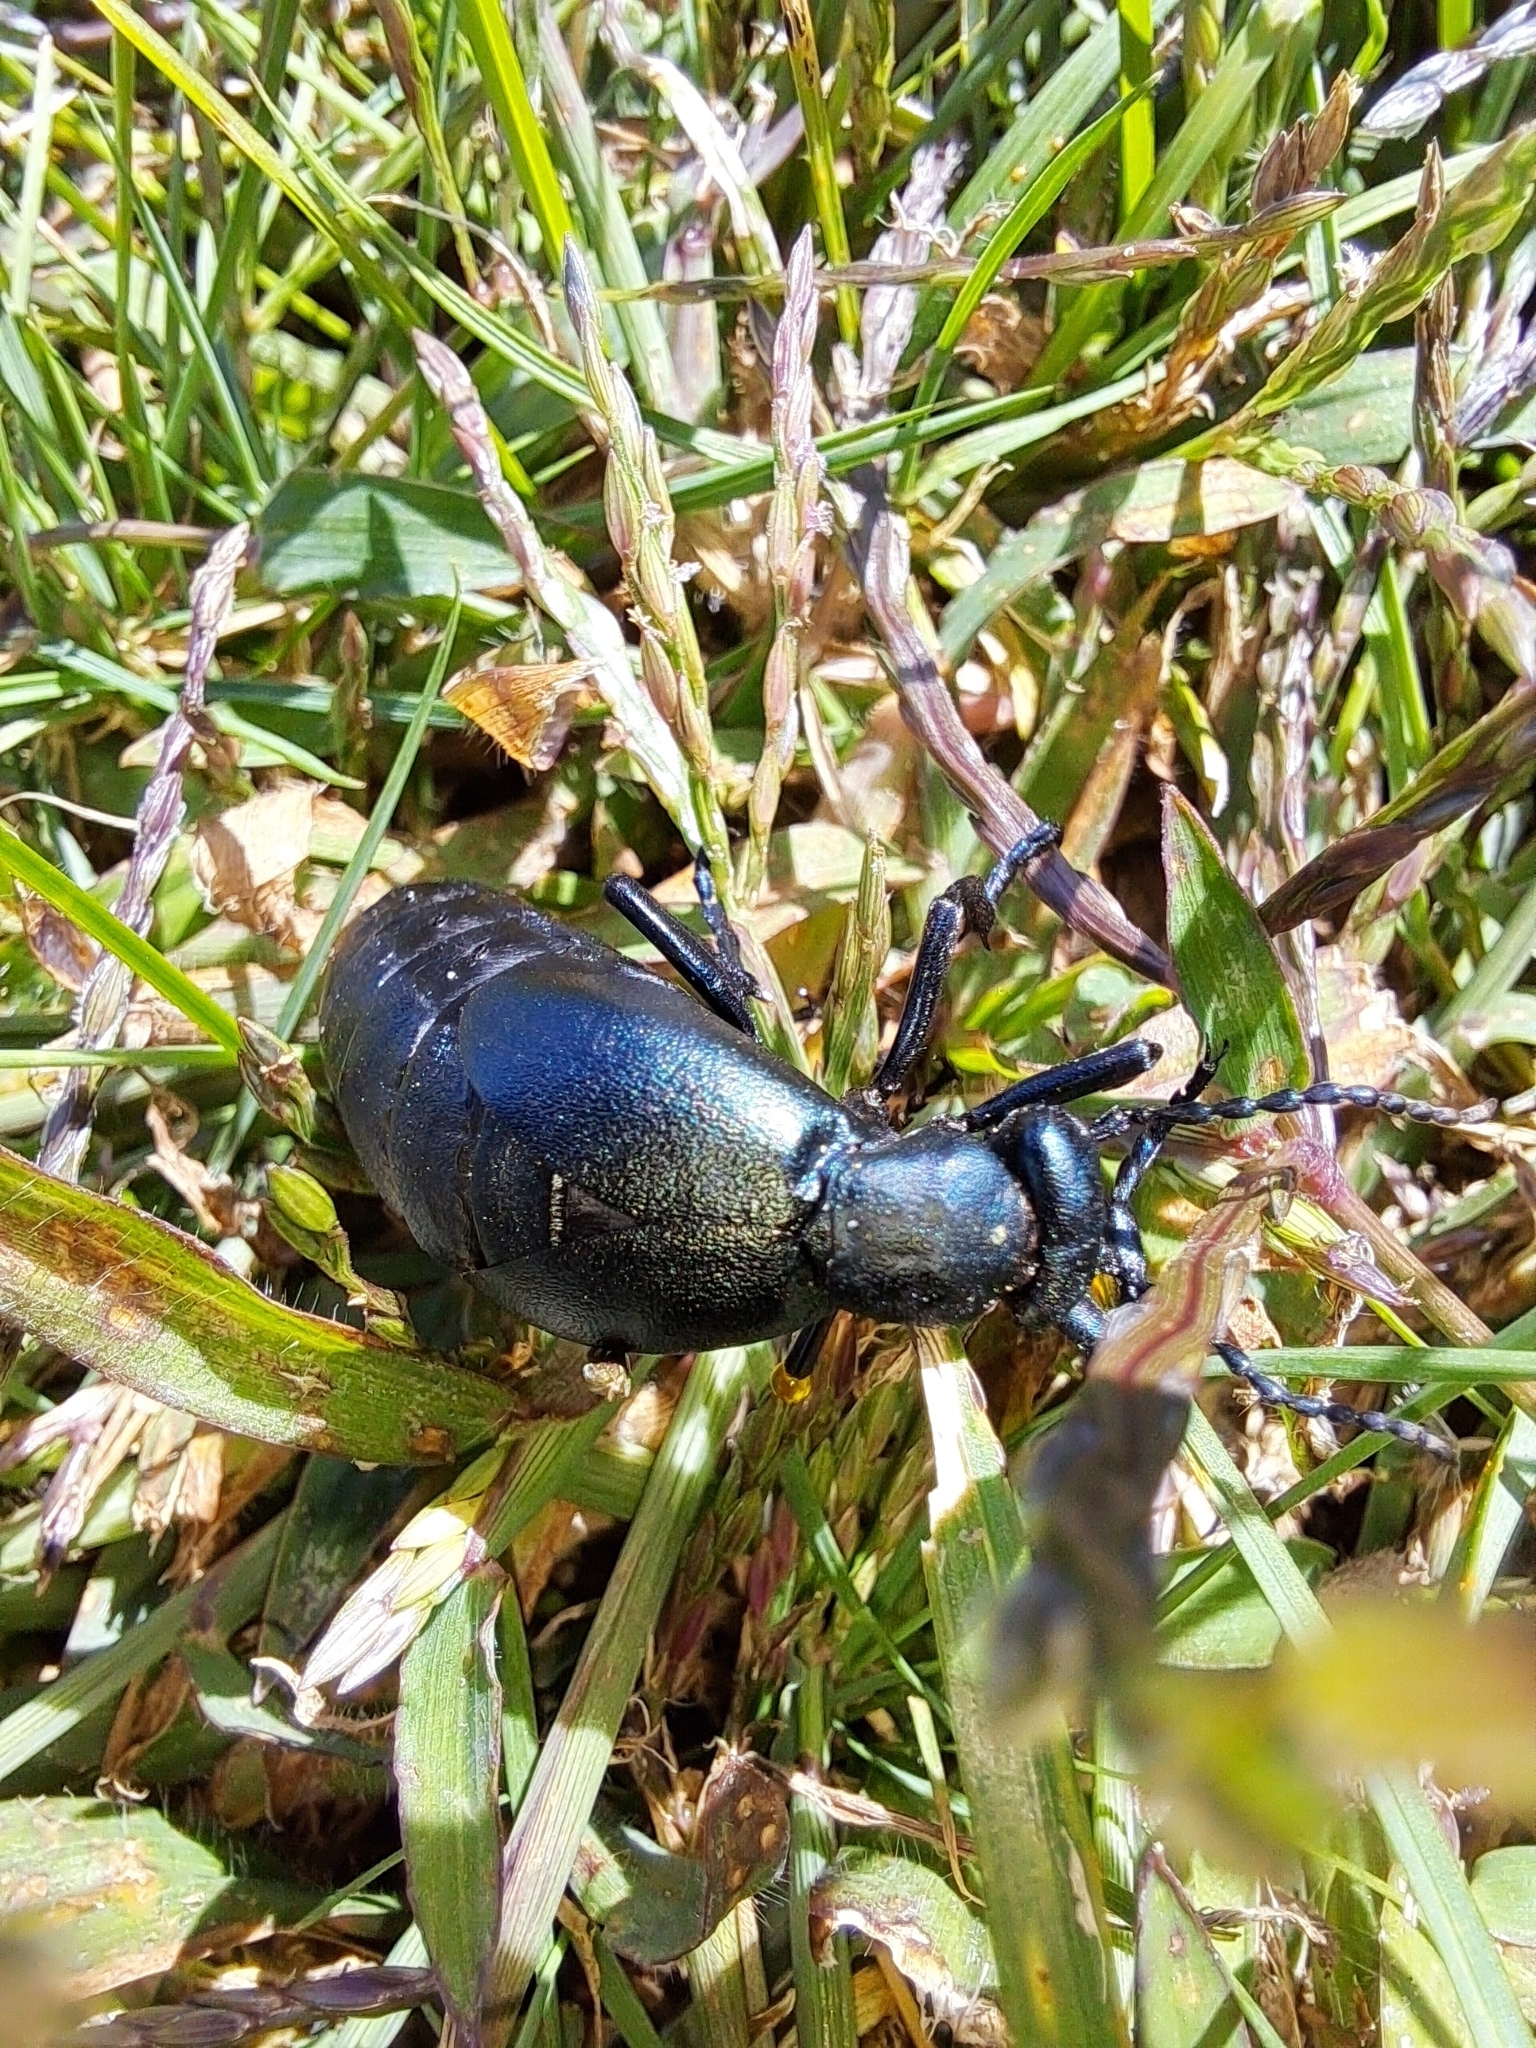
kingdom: Animalia
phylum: Arthropoda
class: Insecta
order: Coleoptera
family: Meloidae
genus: Meloe
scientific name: Meloe campanicollis
